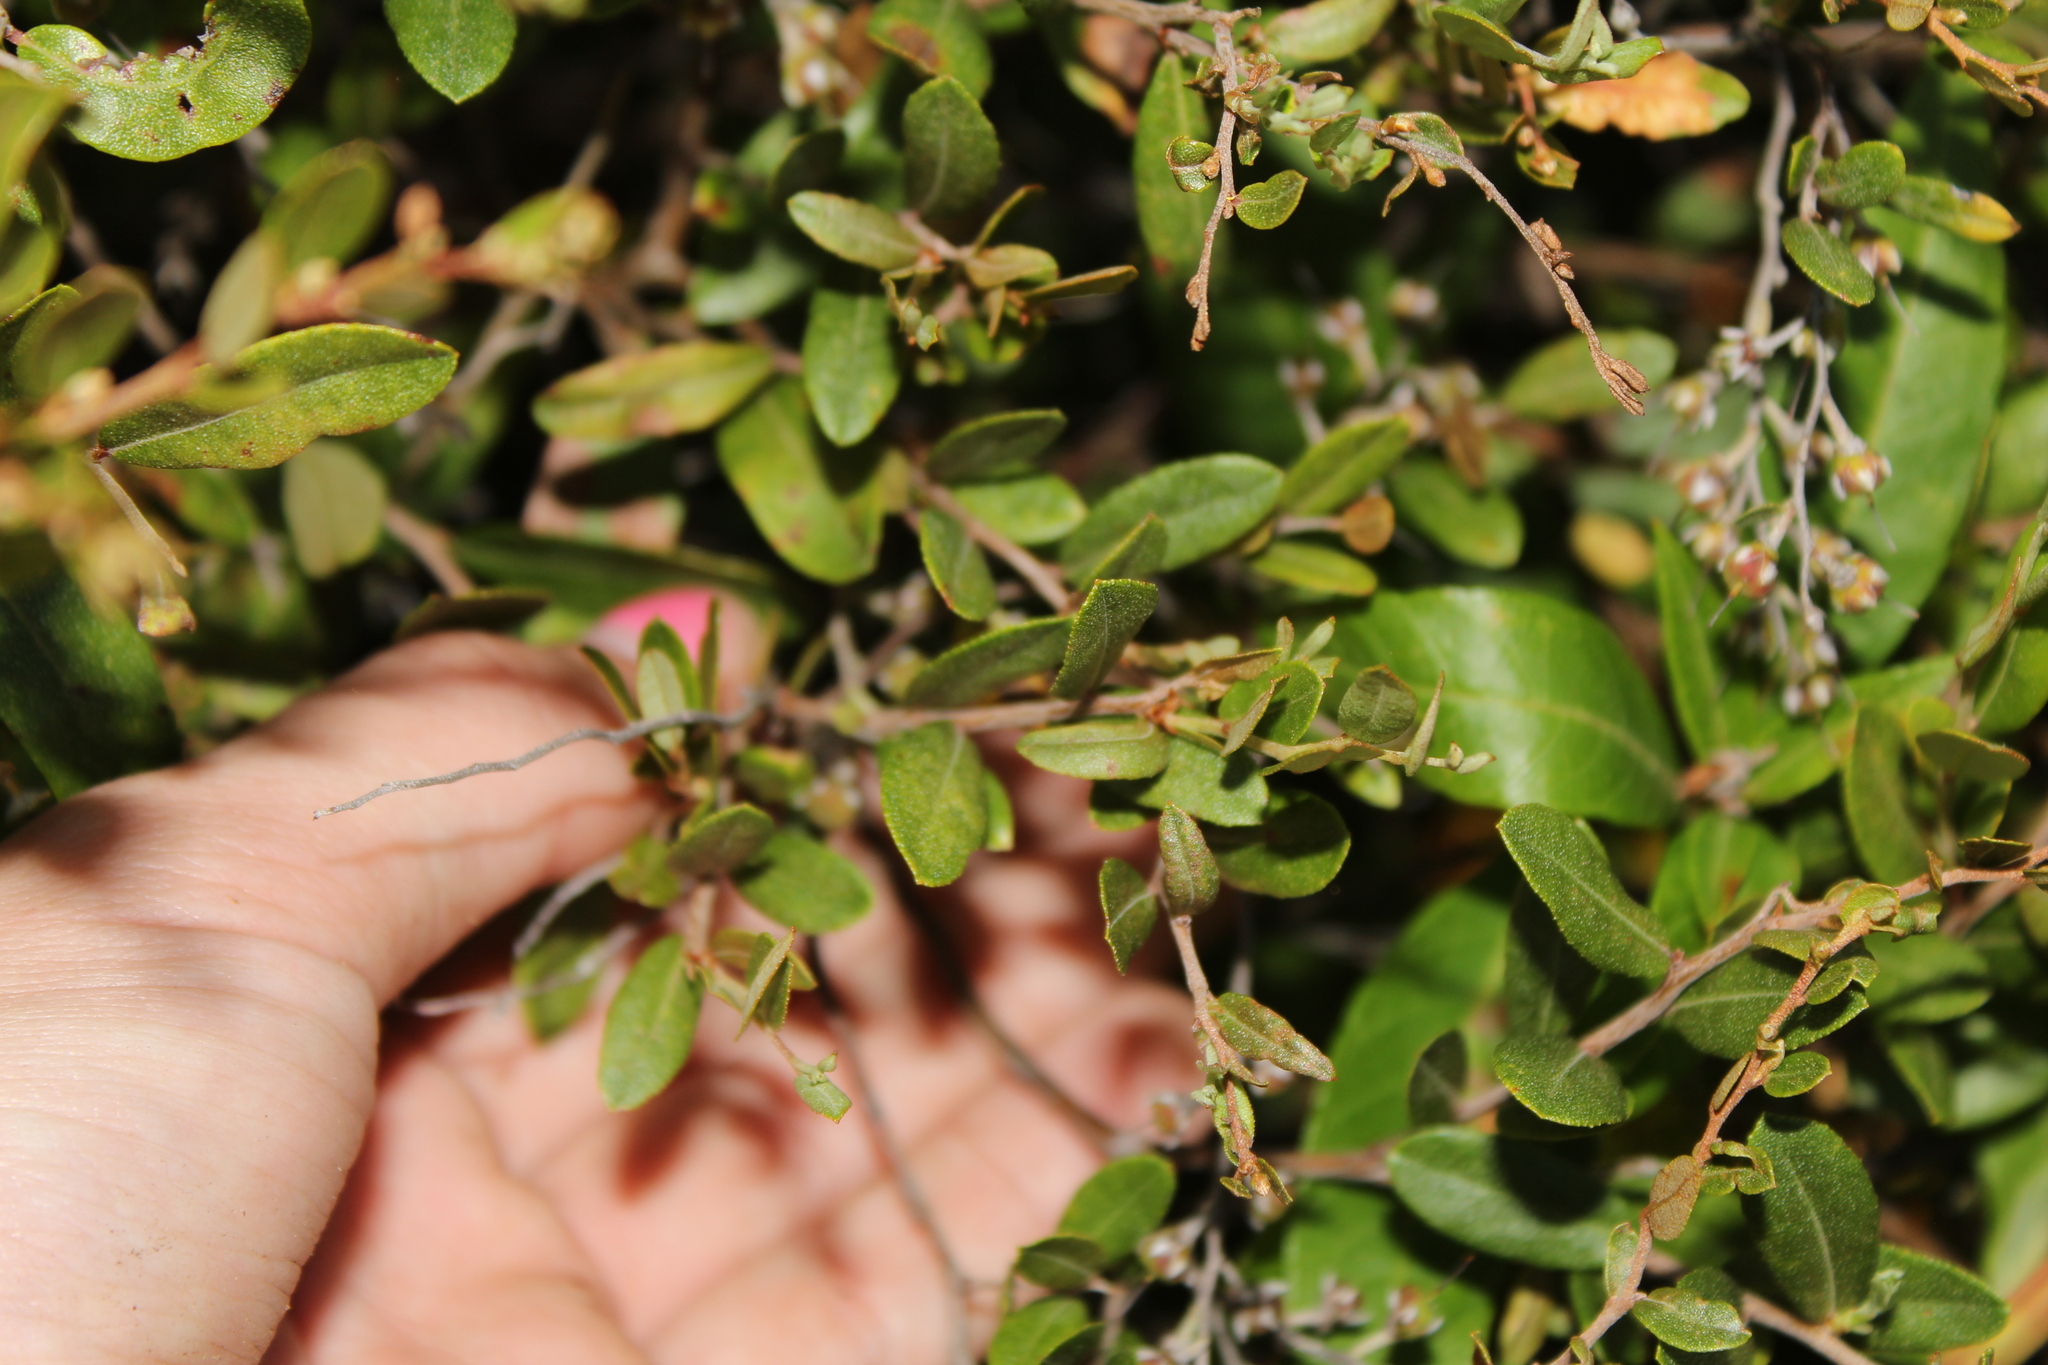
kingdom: Plantae
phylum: Tracheophyta
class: Magnoliopsida
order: Ericales
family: Ericaceae
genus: Chamaedaphne
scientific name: Chamaedaphne calyculata
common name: Leatherleaf
